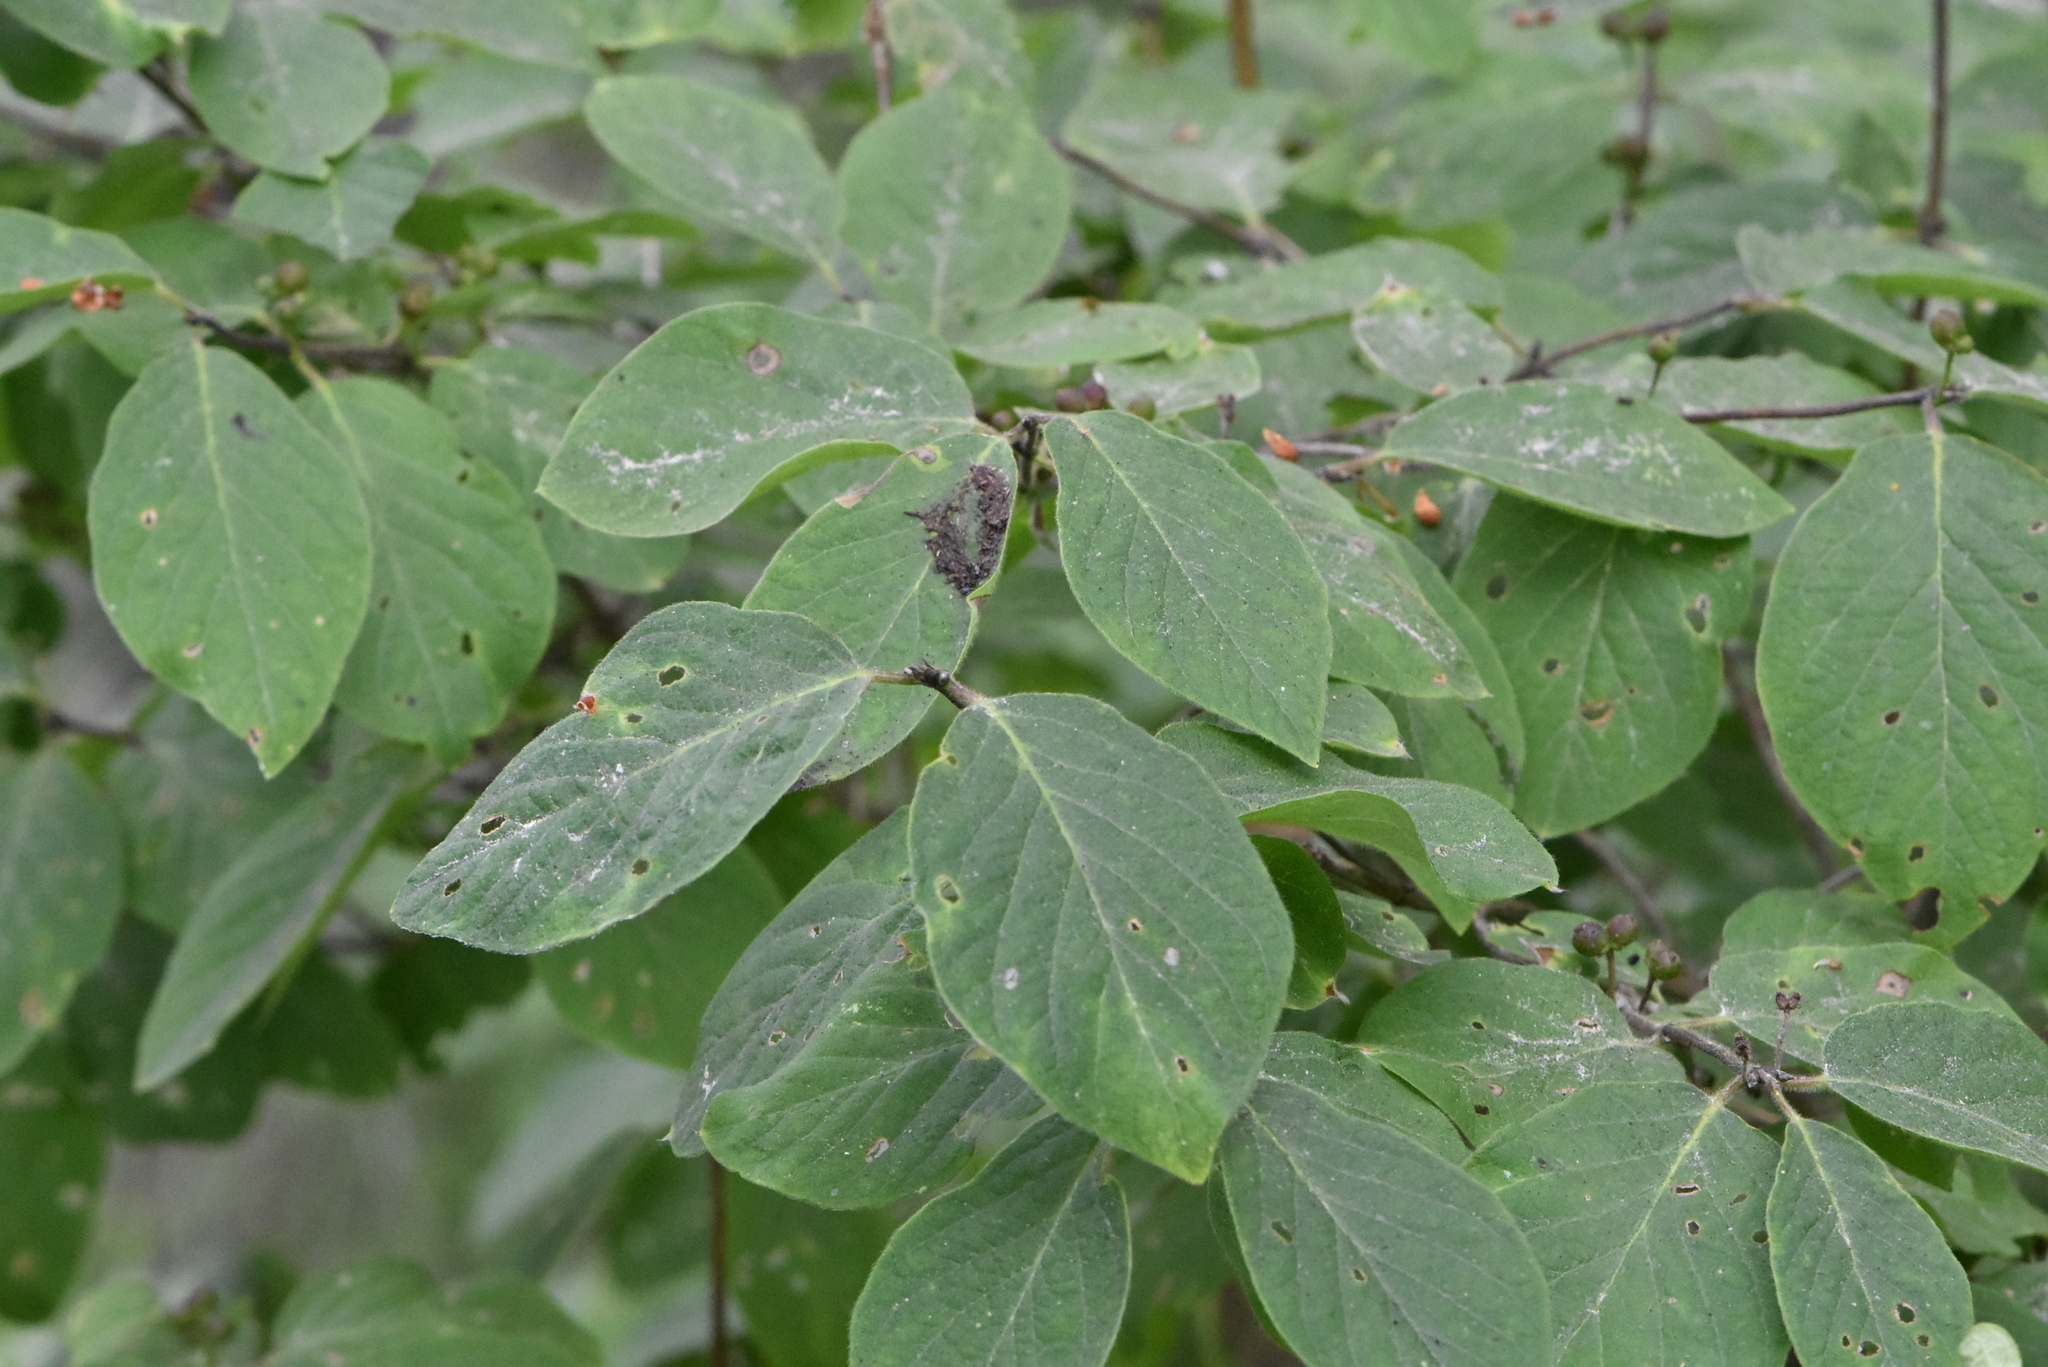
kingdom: Plantae
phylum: Tracheophyta
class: Magnoliopsida
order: Dipsacales
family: Caprifoliaceae
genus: Lonicera
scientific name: Lonicera xylosteum
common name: Fly honeysuckle
